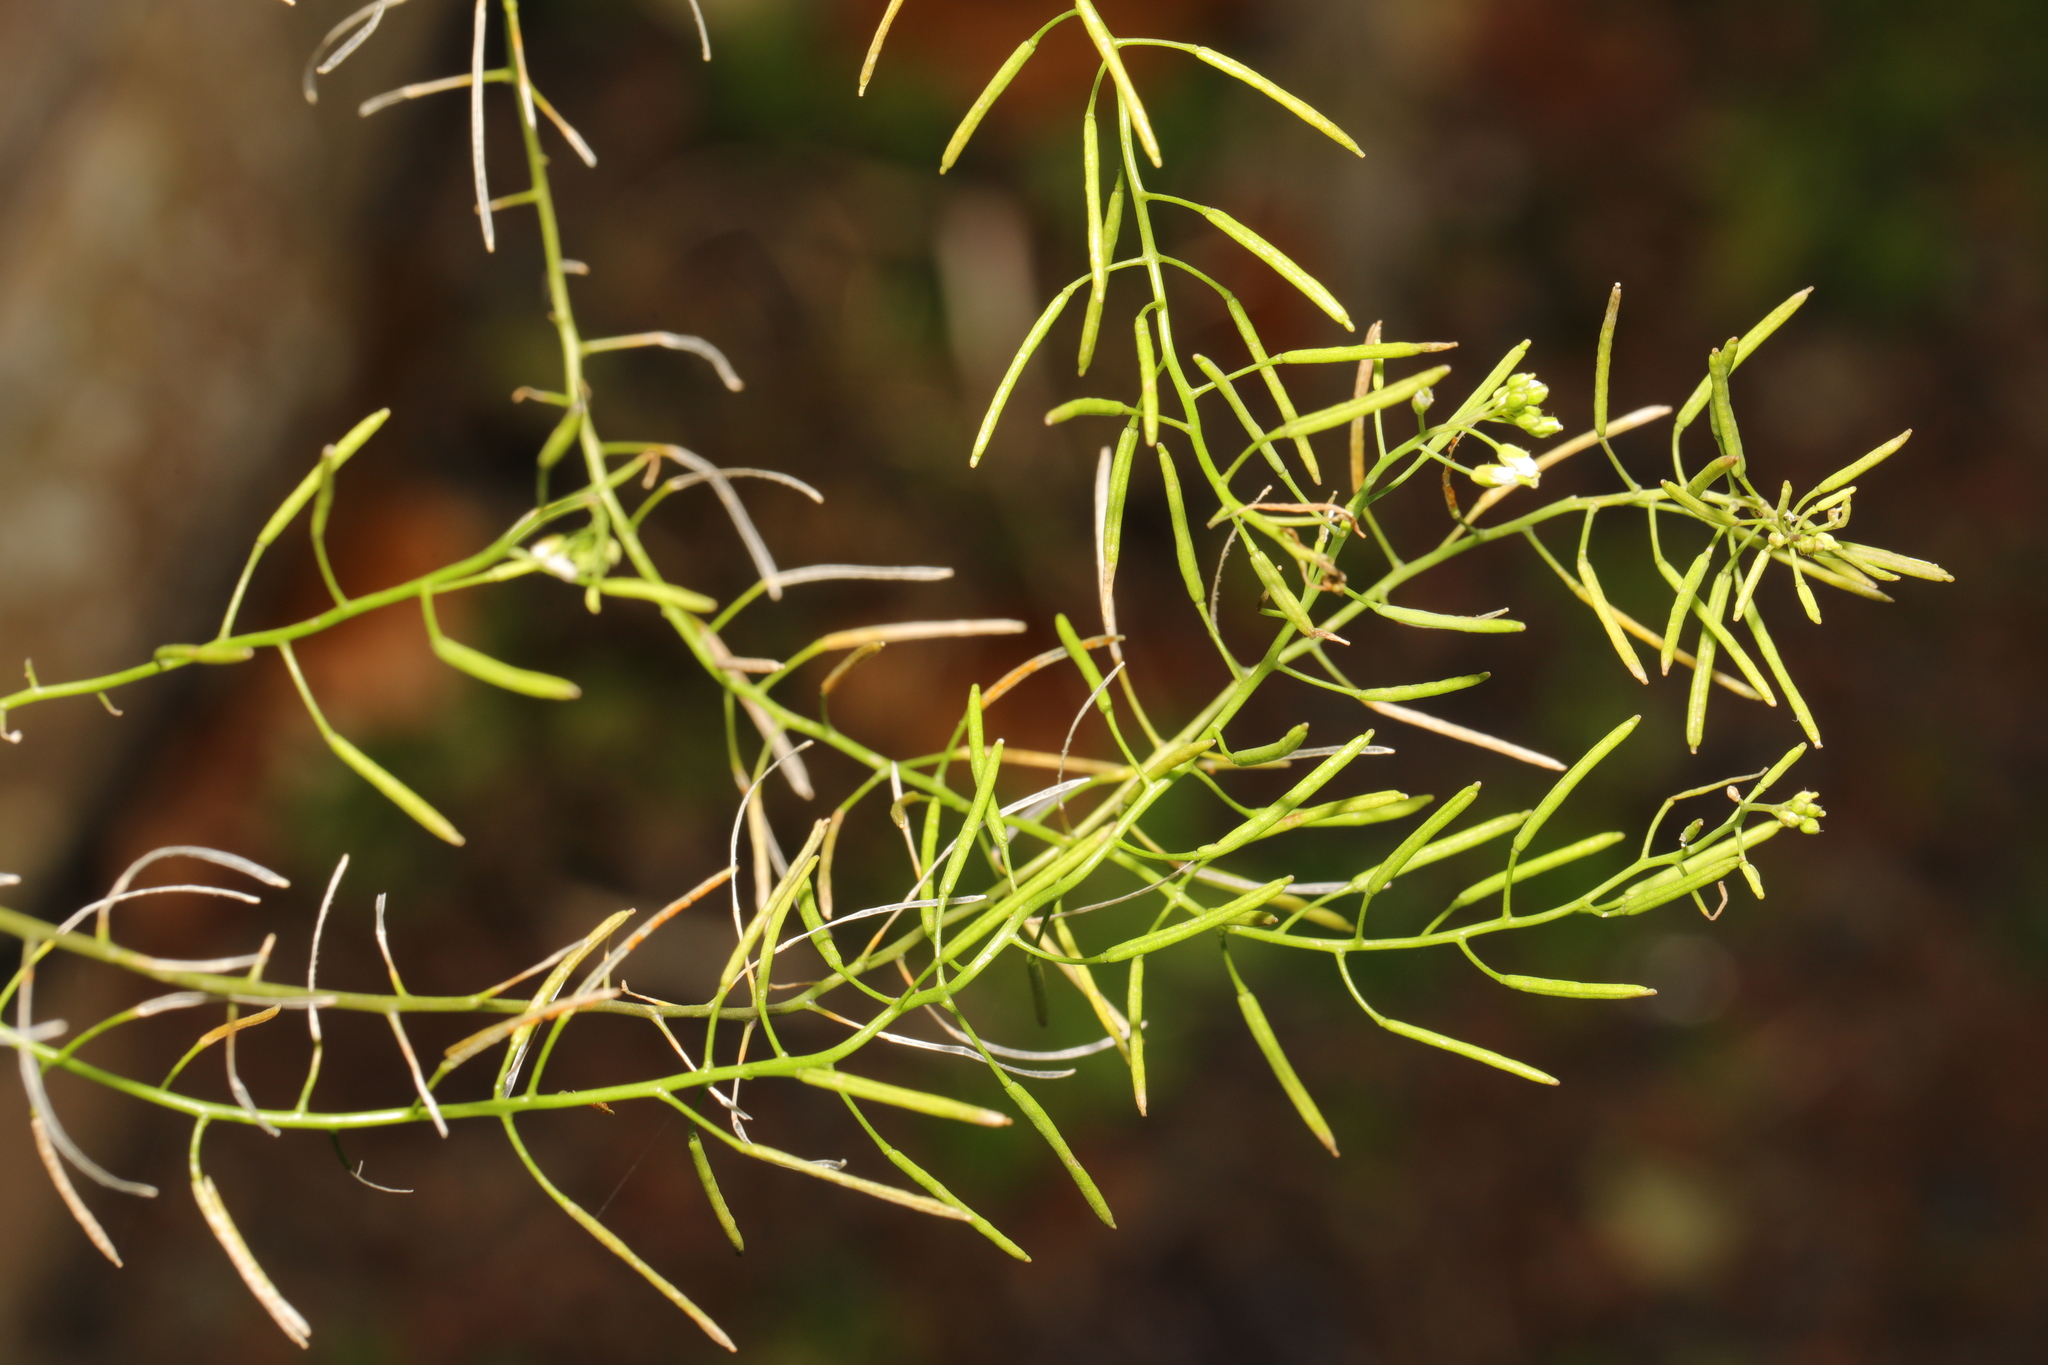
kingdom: Plantae
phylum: Tracheophyta
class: Magnoliopsida
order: Brassicales
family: Brassicaceae
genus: Arabidopsis
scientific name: Arabidopsis thaliana
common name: Thale cress
